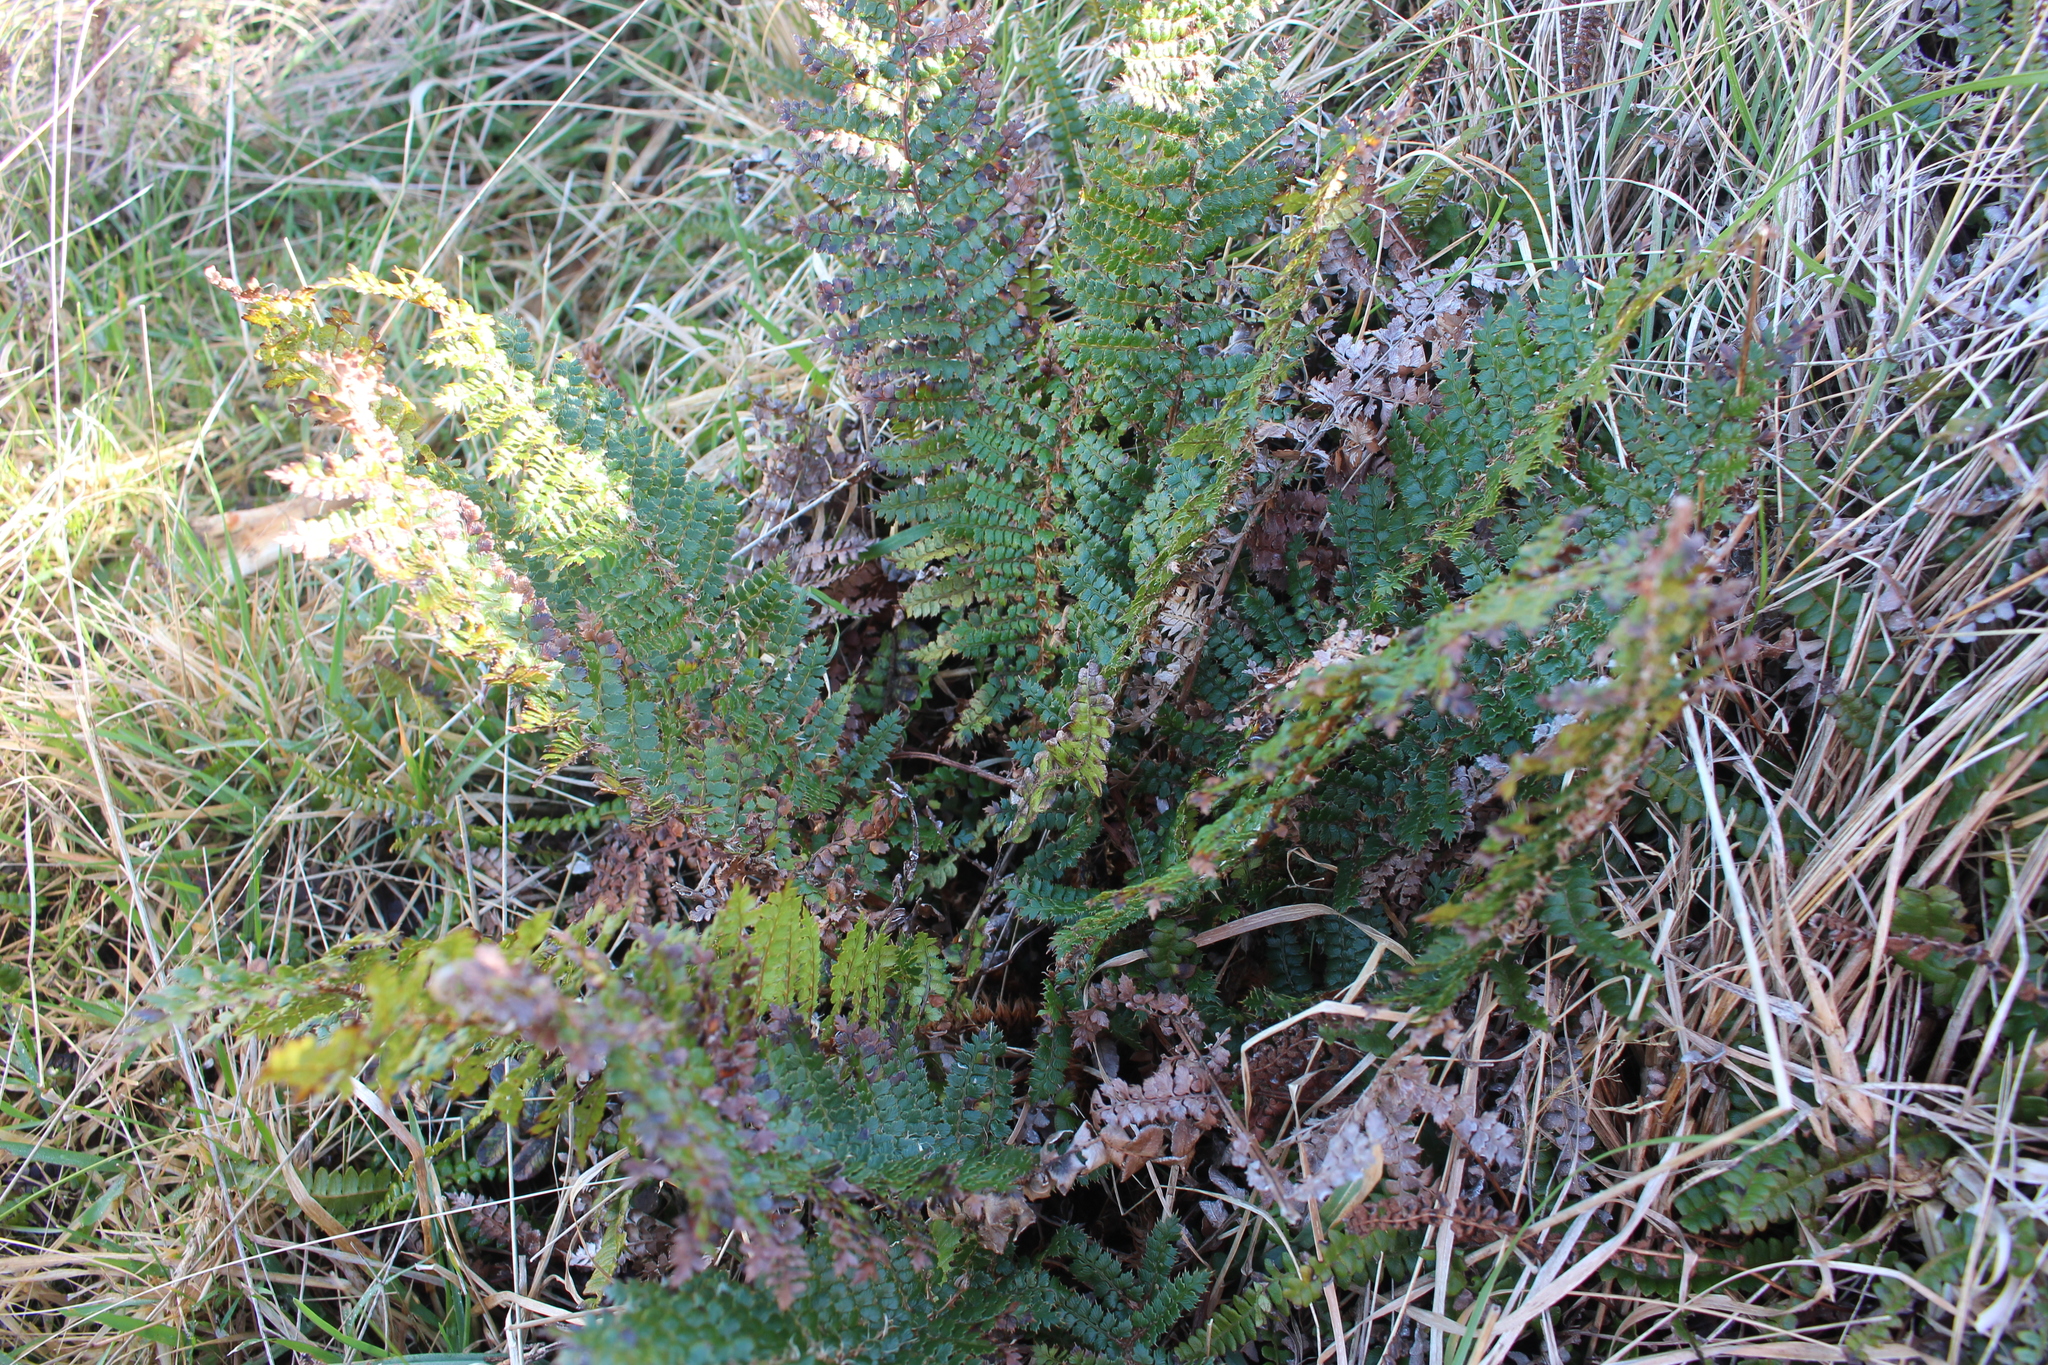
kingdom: Plantae
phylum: Tracheophyta
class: Polypodiopsida
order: Polypodiales
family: Dryopteridaceae
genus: Polystichum
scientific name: Polystichum vestitum
